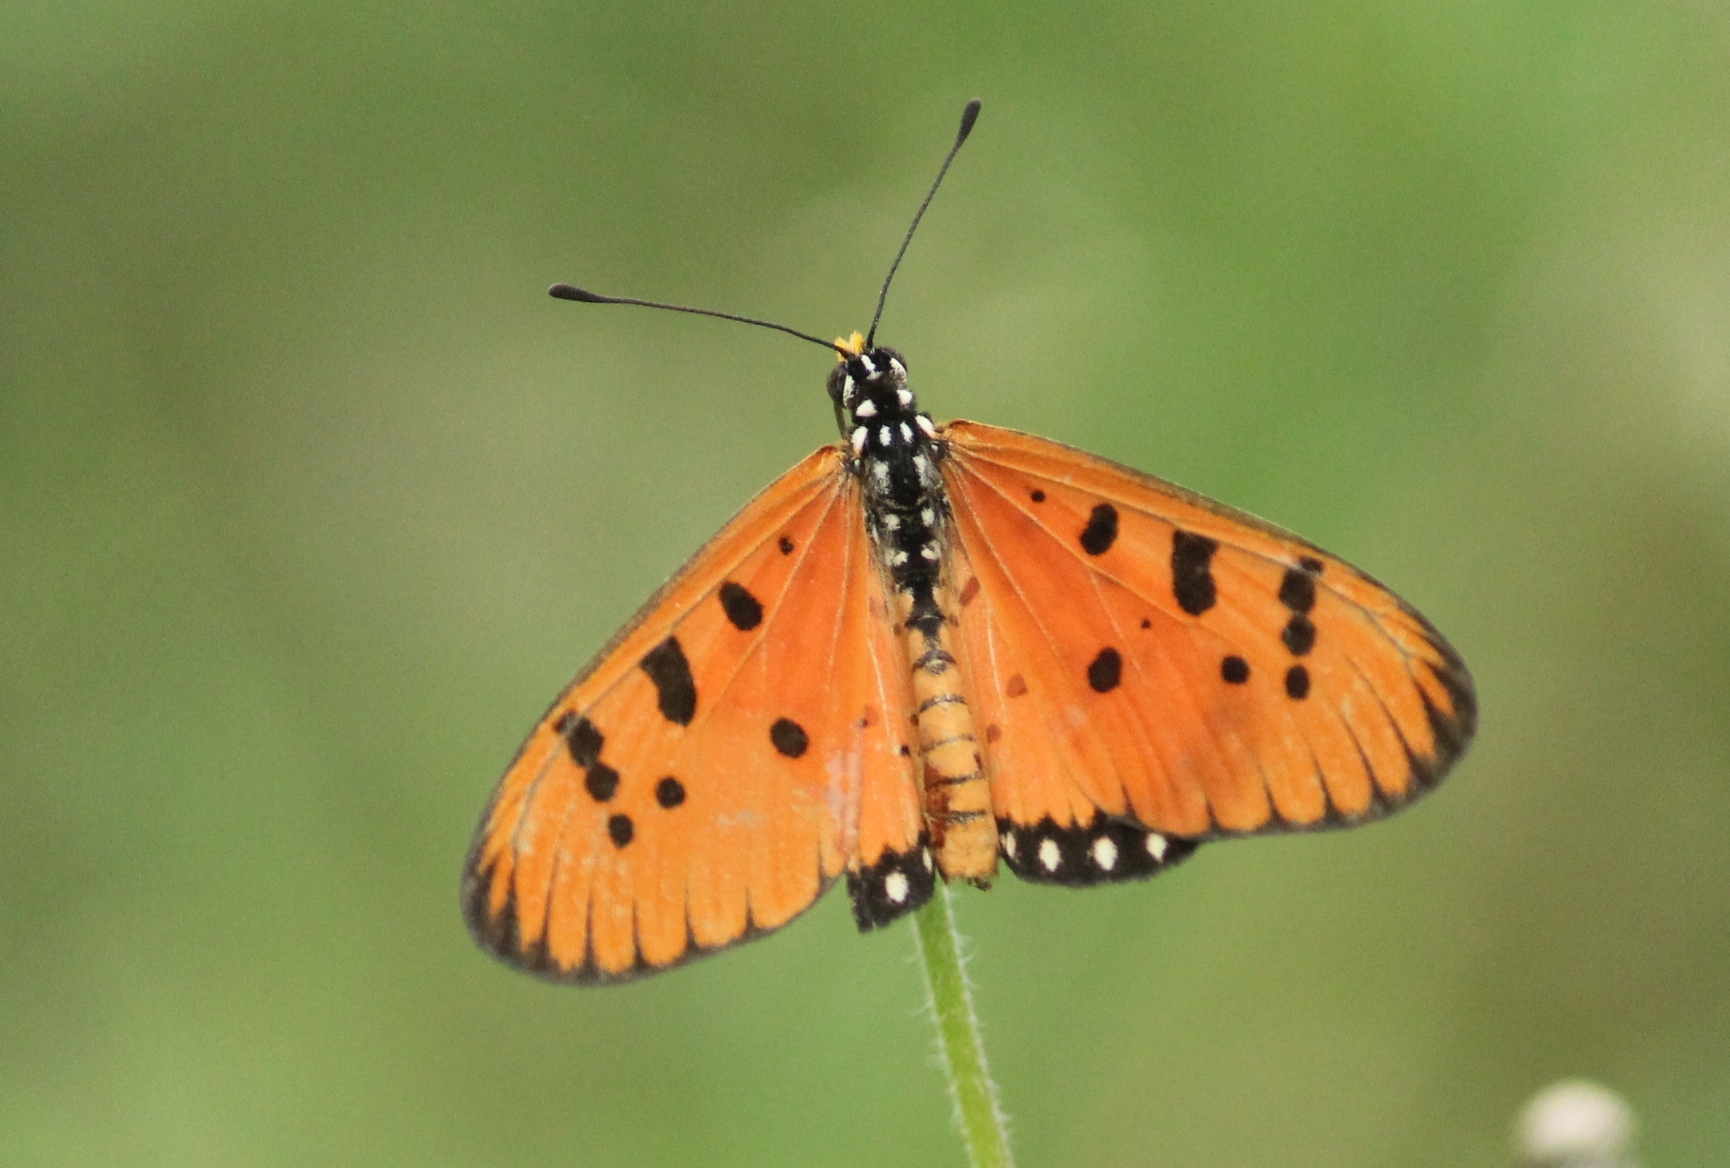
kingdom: Animalia
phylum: Arthropoda
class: Insecta
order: Lepidoptera
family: Nymphalidae
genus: Acraea
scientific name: Acraea terpsicore
